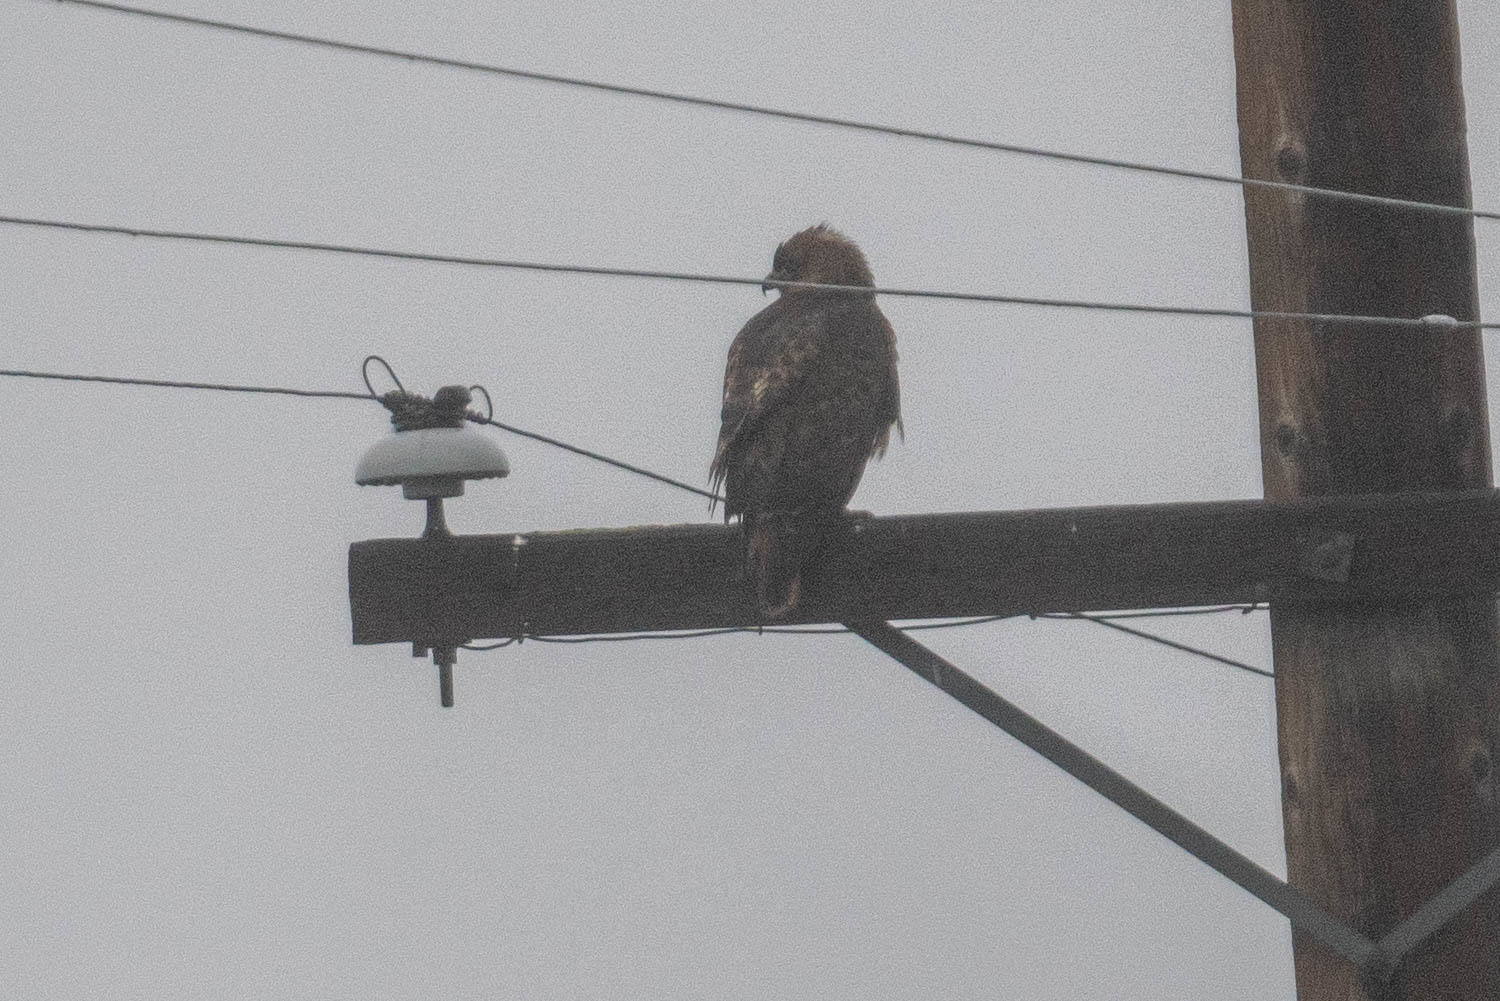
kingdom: Animalia
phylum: Chordata
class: Aves
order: Accipitriformes
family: Accipitridae
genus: Buteo
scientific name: Buteo jamaicensis
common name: Red-tailed hawk
